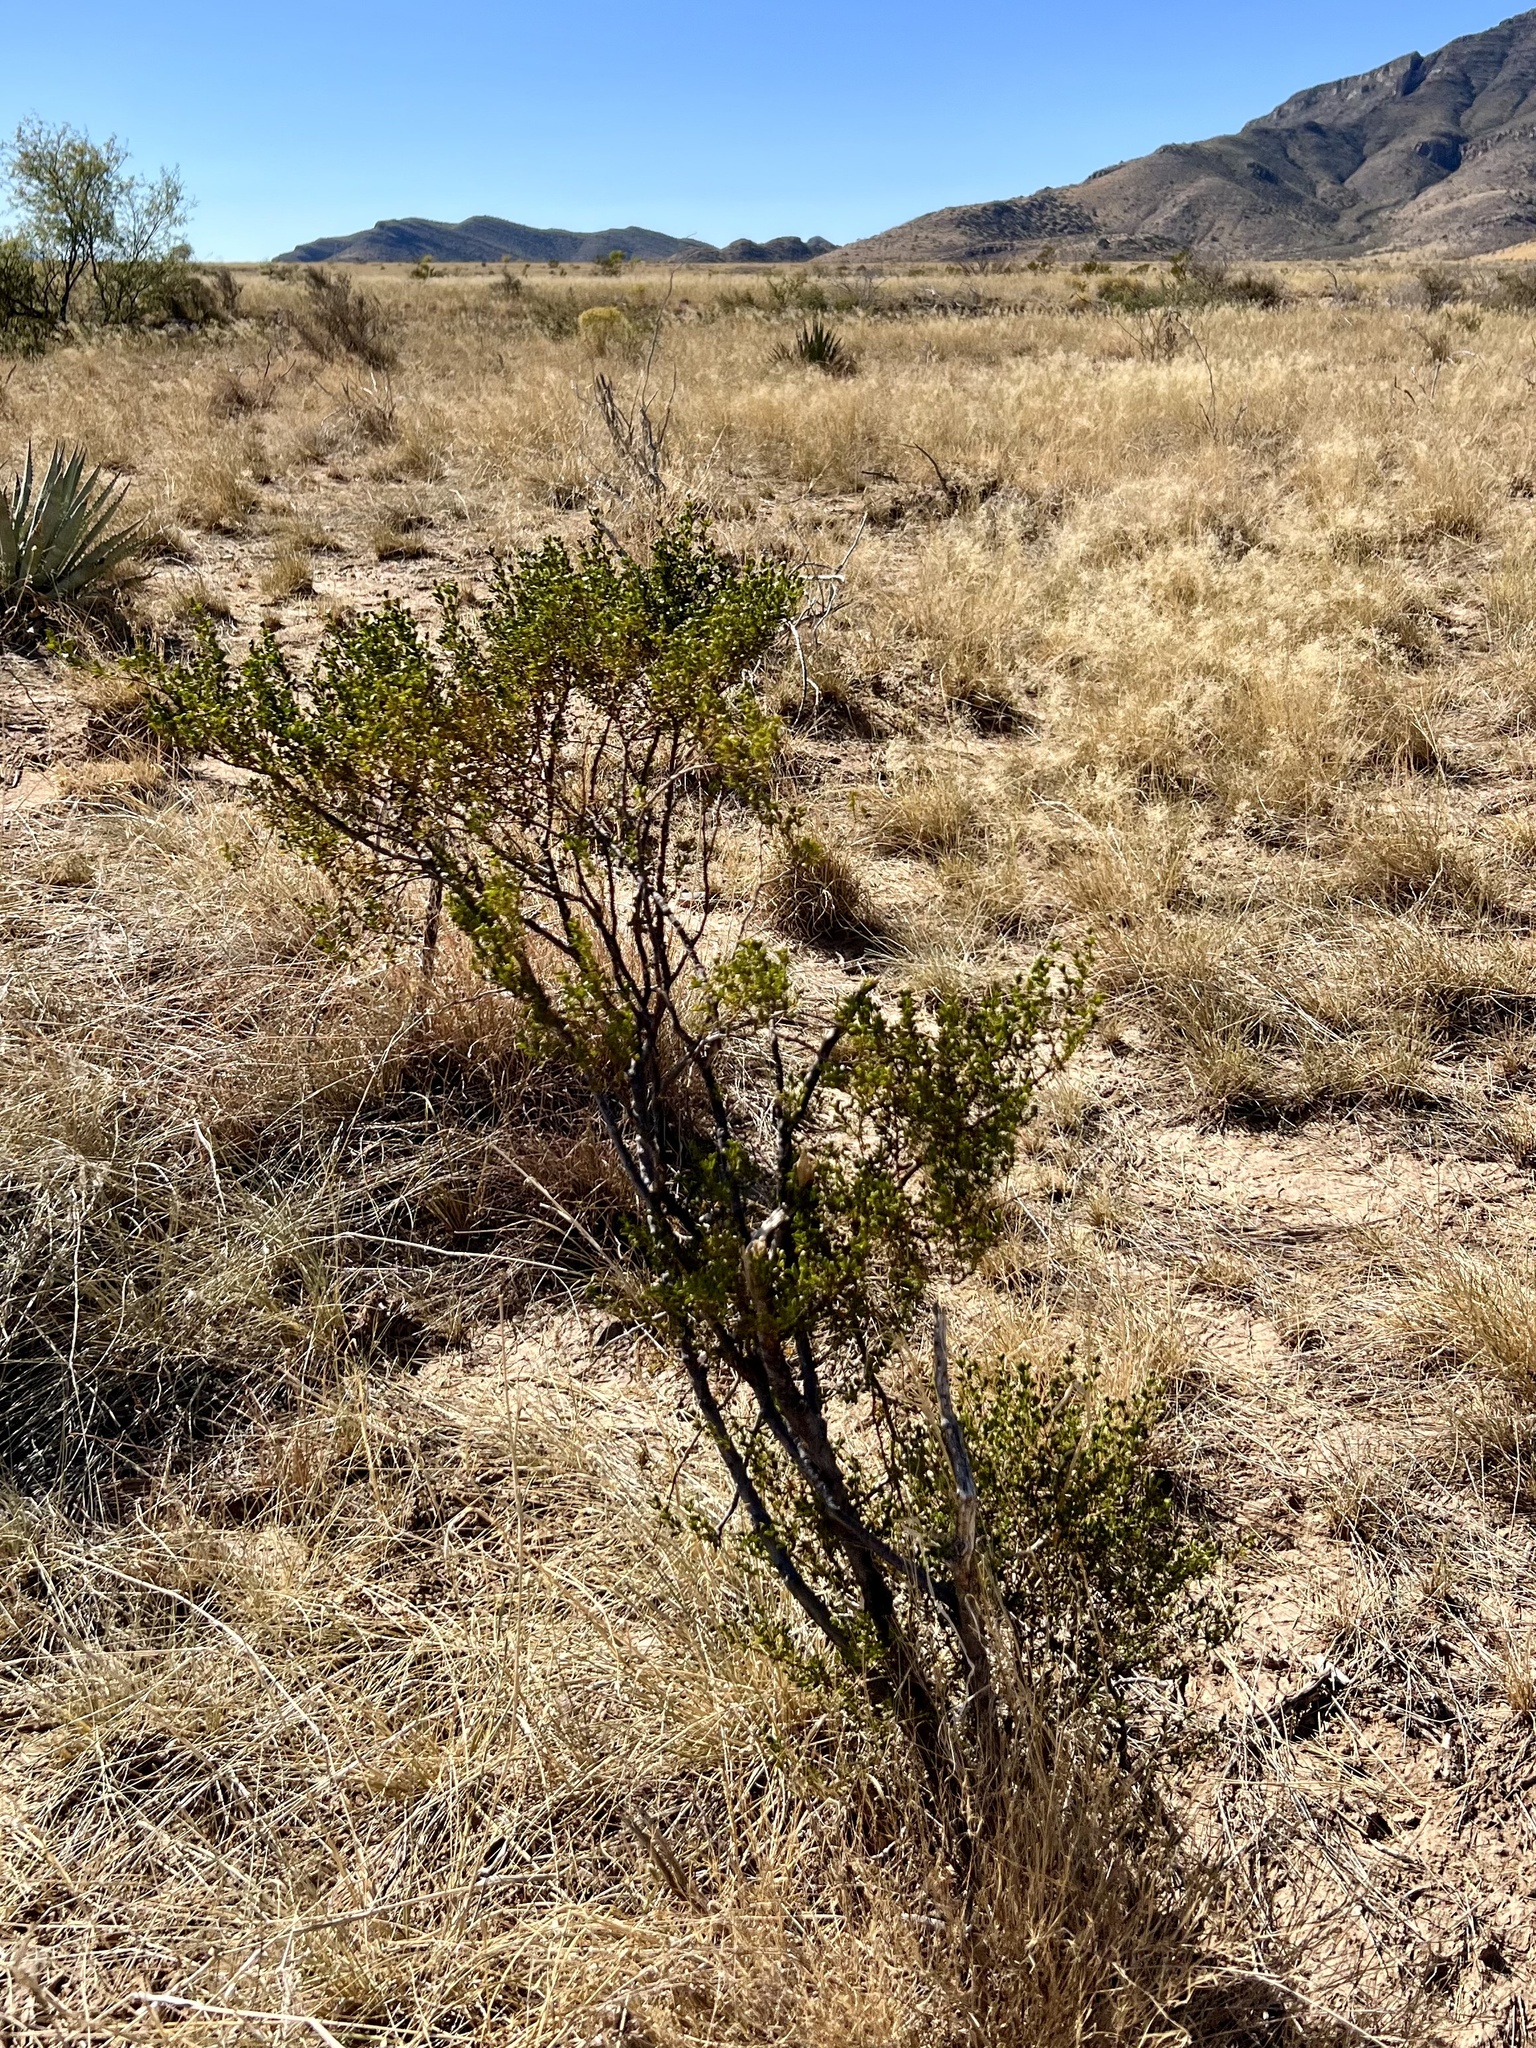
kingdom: Plantae
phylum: Tracheophyta
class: Magnoliopsida
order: Zygophyllales
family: Zygophyllaceae
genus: Larrea
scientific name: Larrea tridentata
